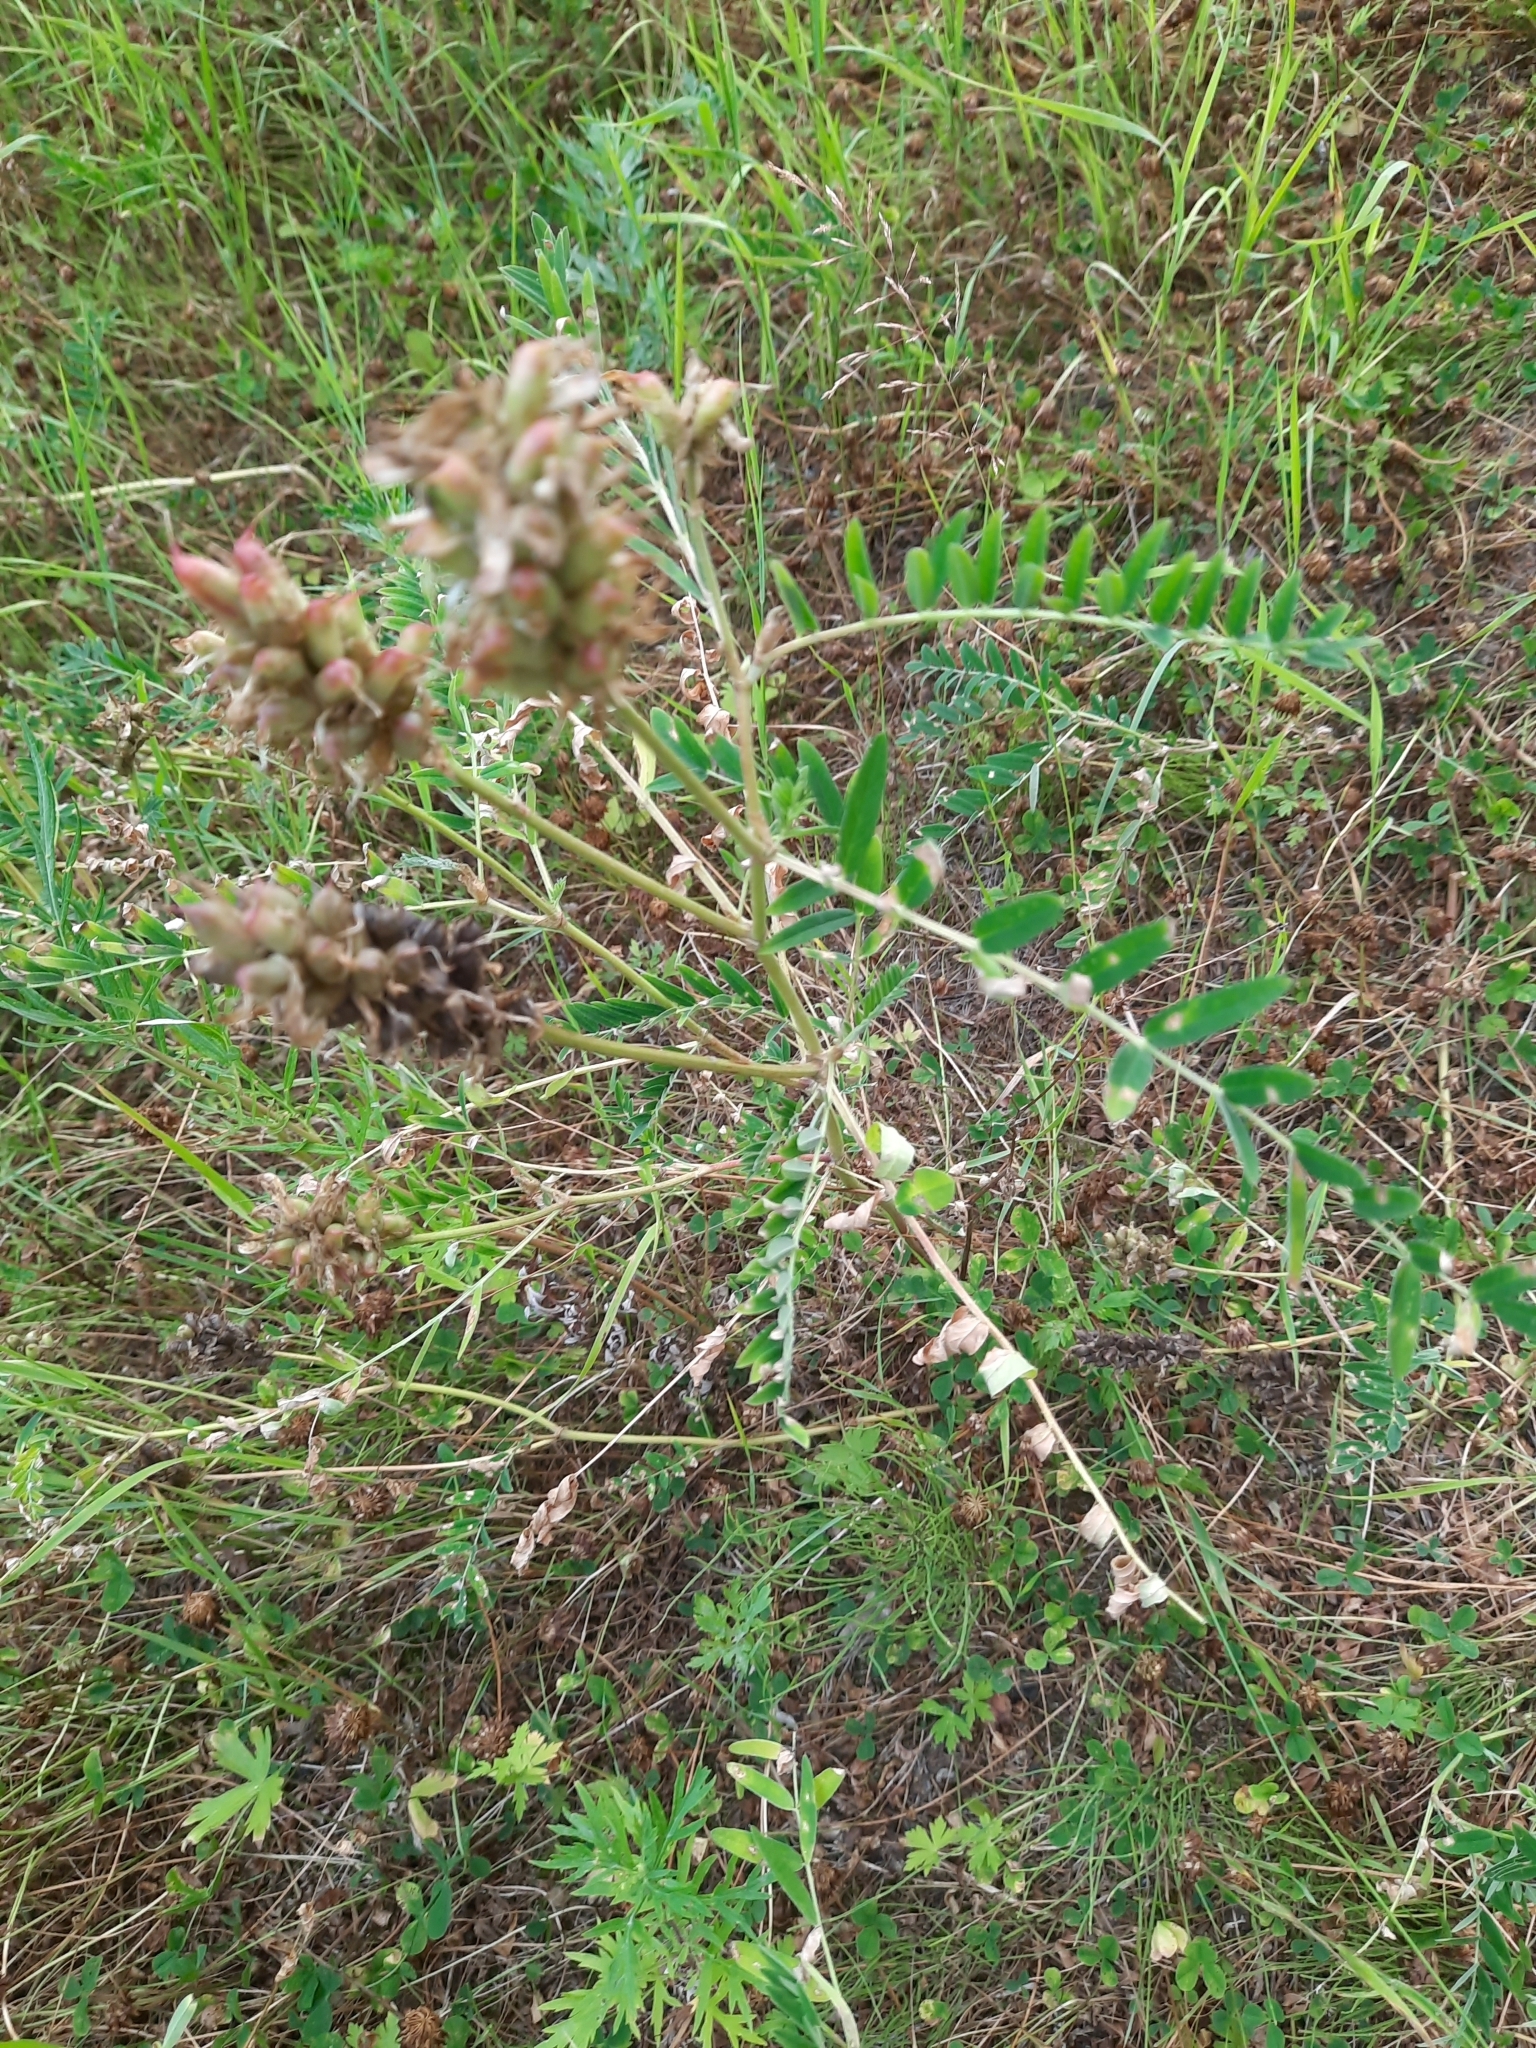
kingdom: Plantae
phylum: Tracheophyta
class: Magnoliopsida
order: Fabales
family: Fabaceae
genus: Astragalus
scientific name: Astragalus uliginosus
